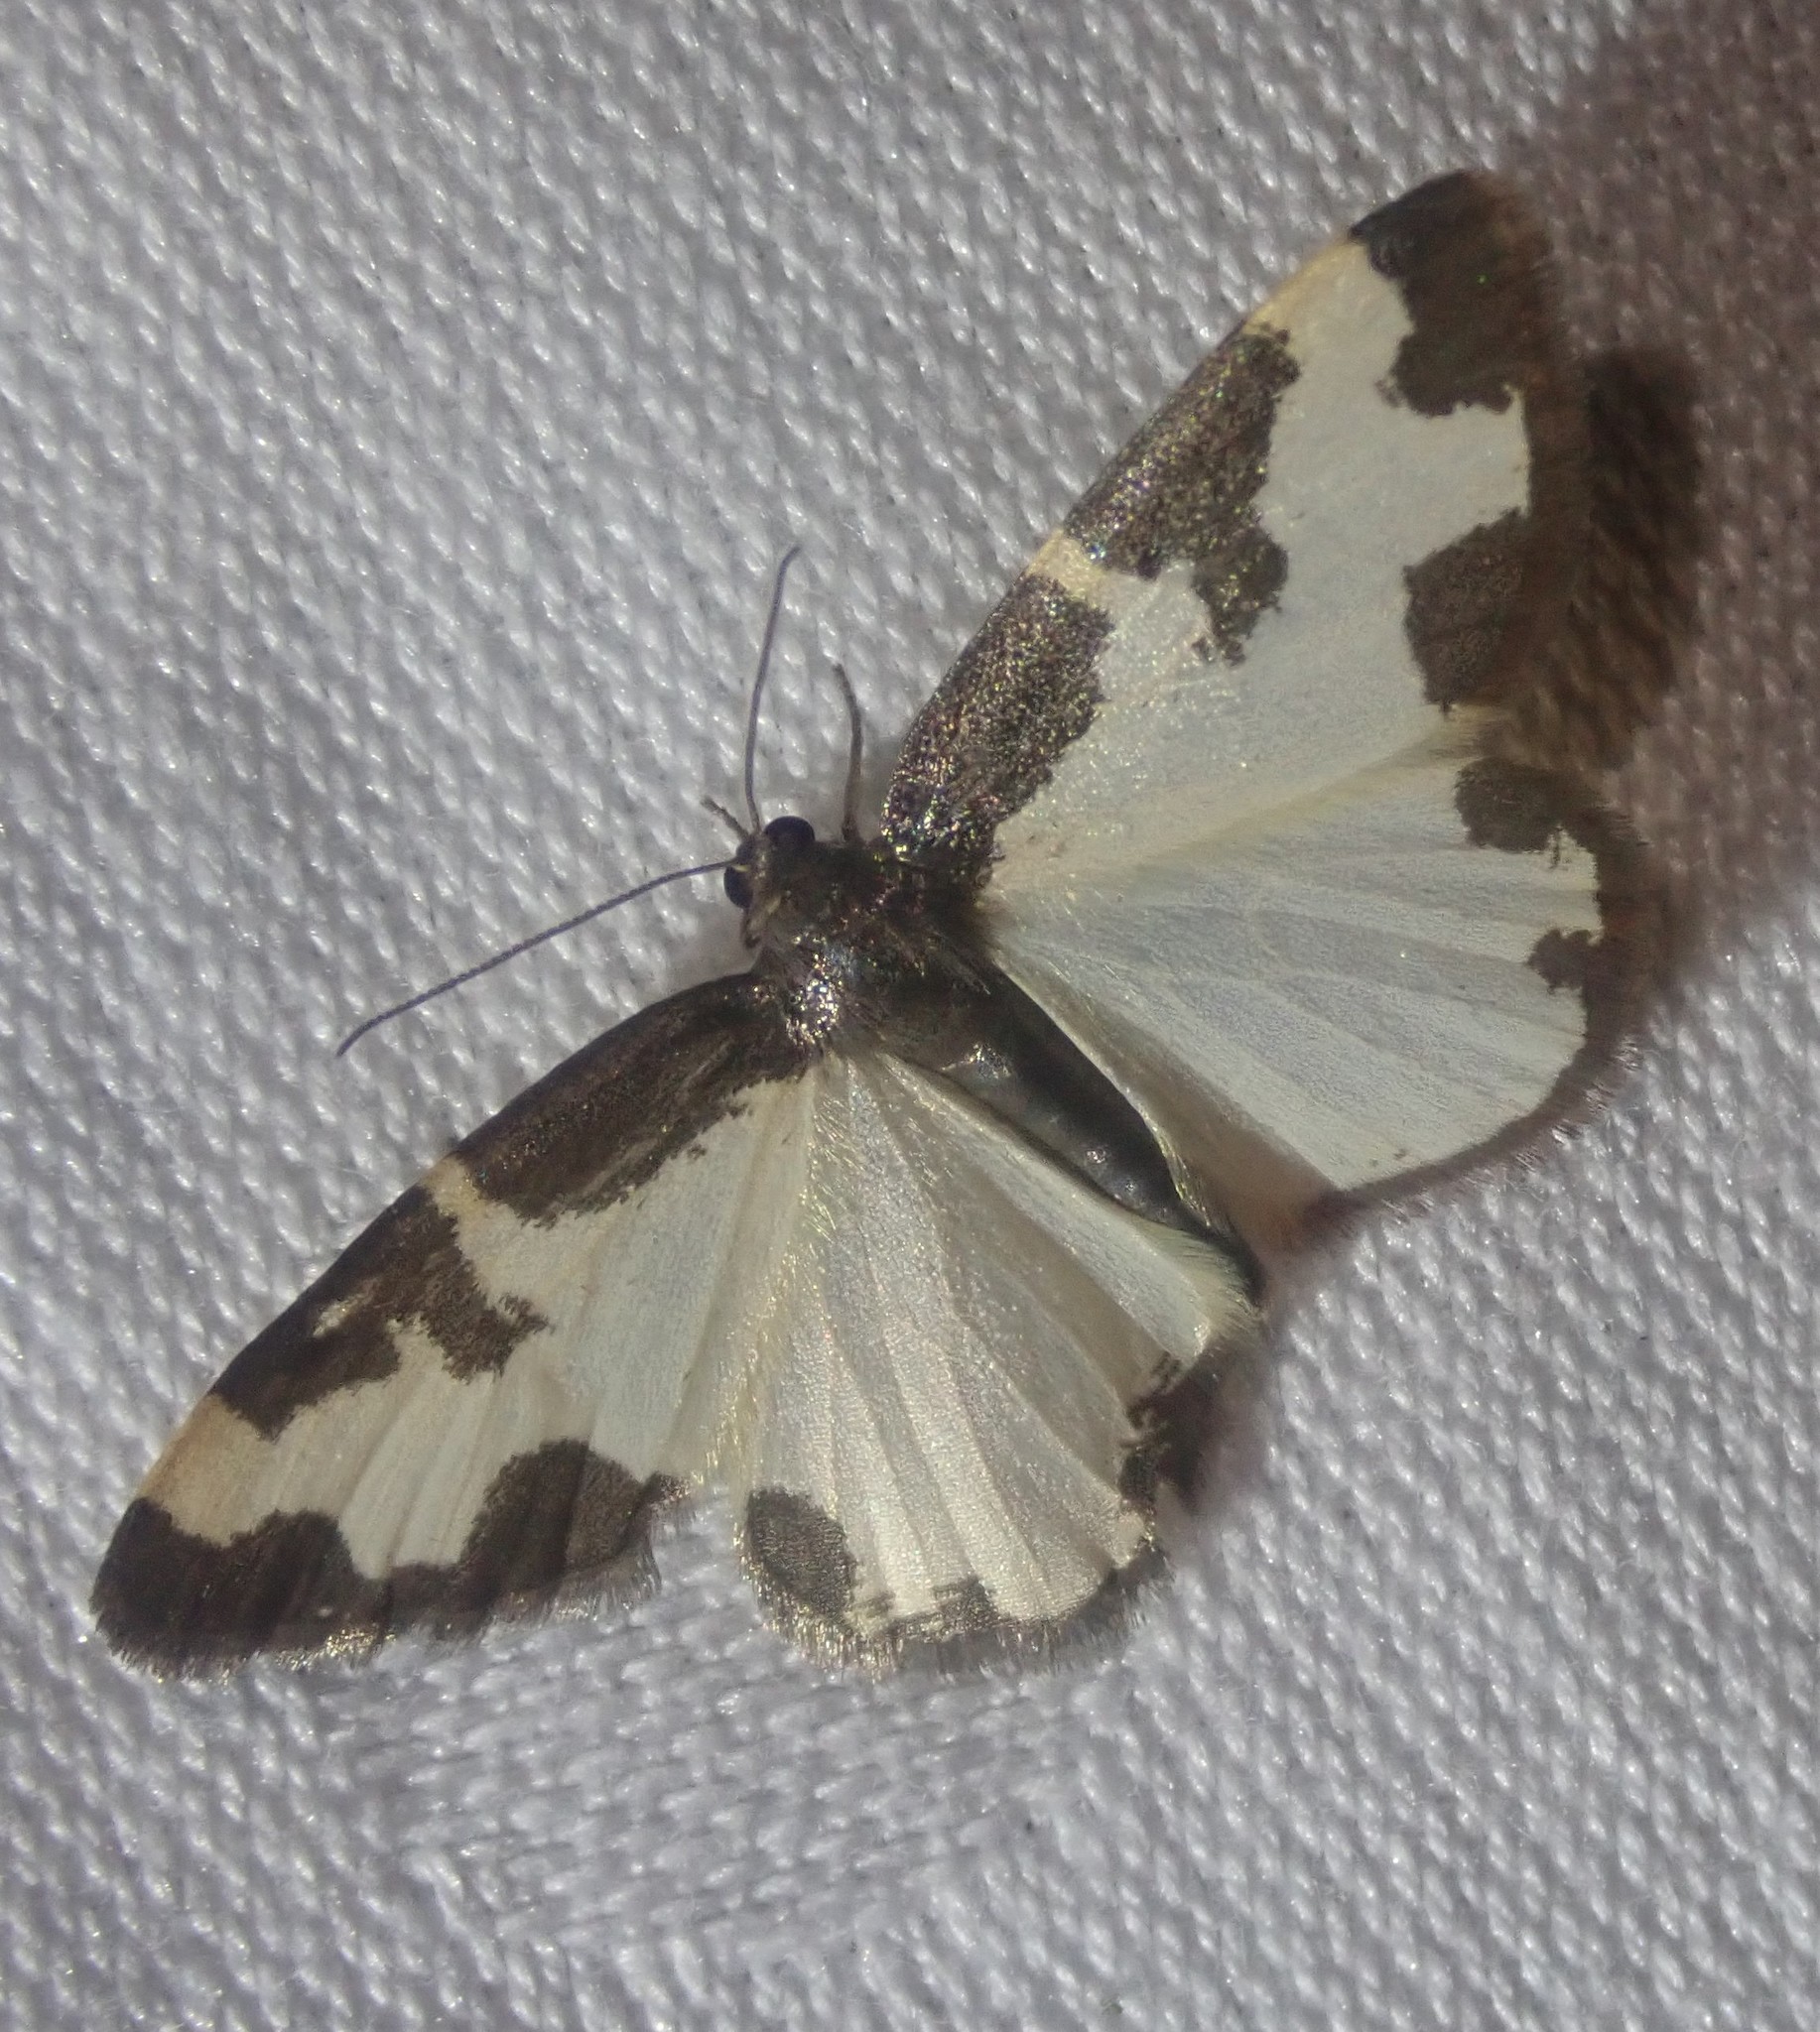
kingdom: Animalia
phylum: Arthropoda
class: Insecta
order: Lepidoptera
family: Geometridae
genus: Lomaspilis
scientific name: Lomaspilis marginata
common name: Clouded border
